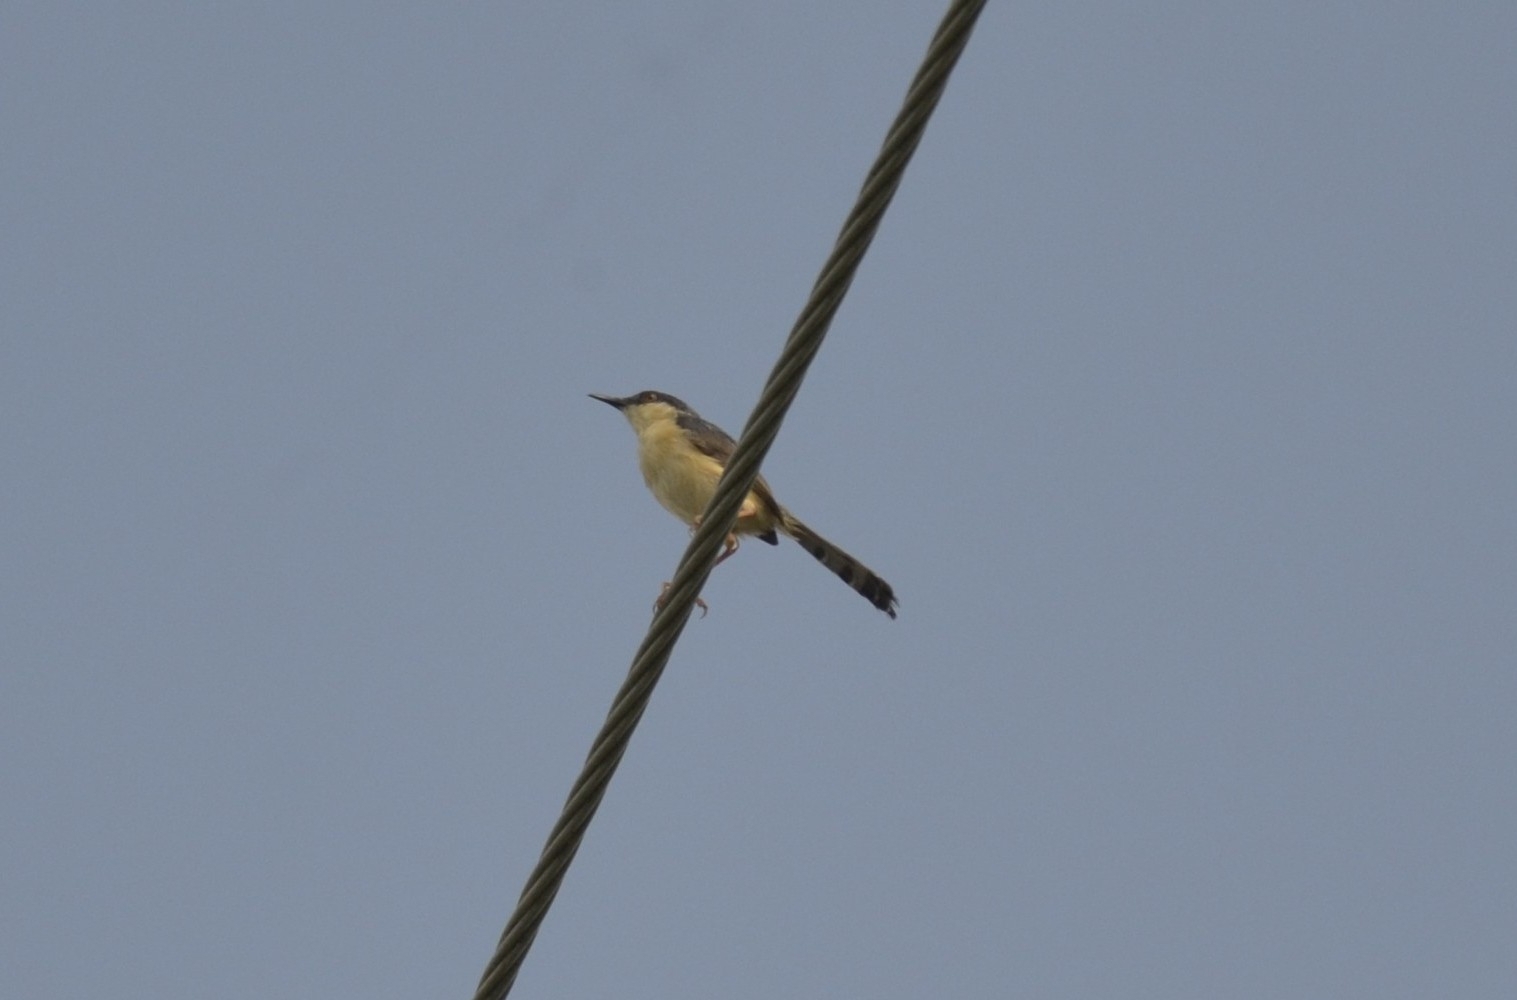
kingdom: Animalia
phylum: Chordata
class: Aves
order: Passeriformes
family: Cisticolidae
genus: Prinia
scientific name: Prinia socialis
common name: Ashy prinia
